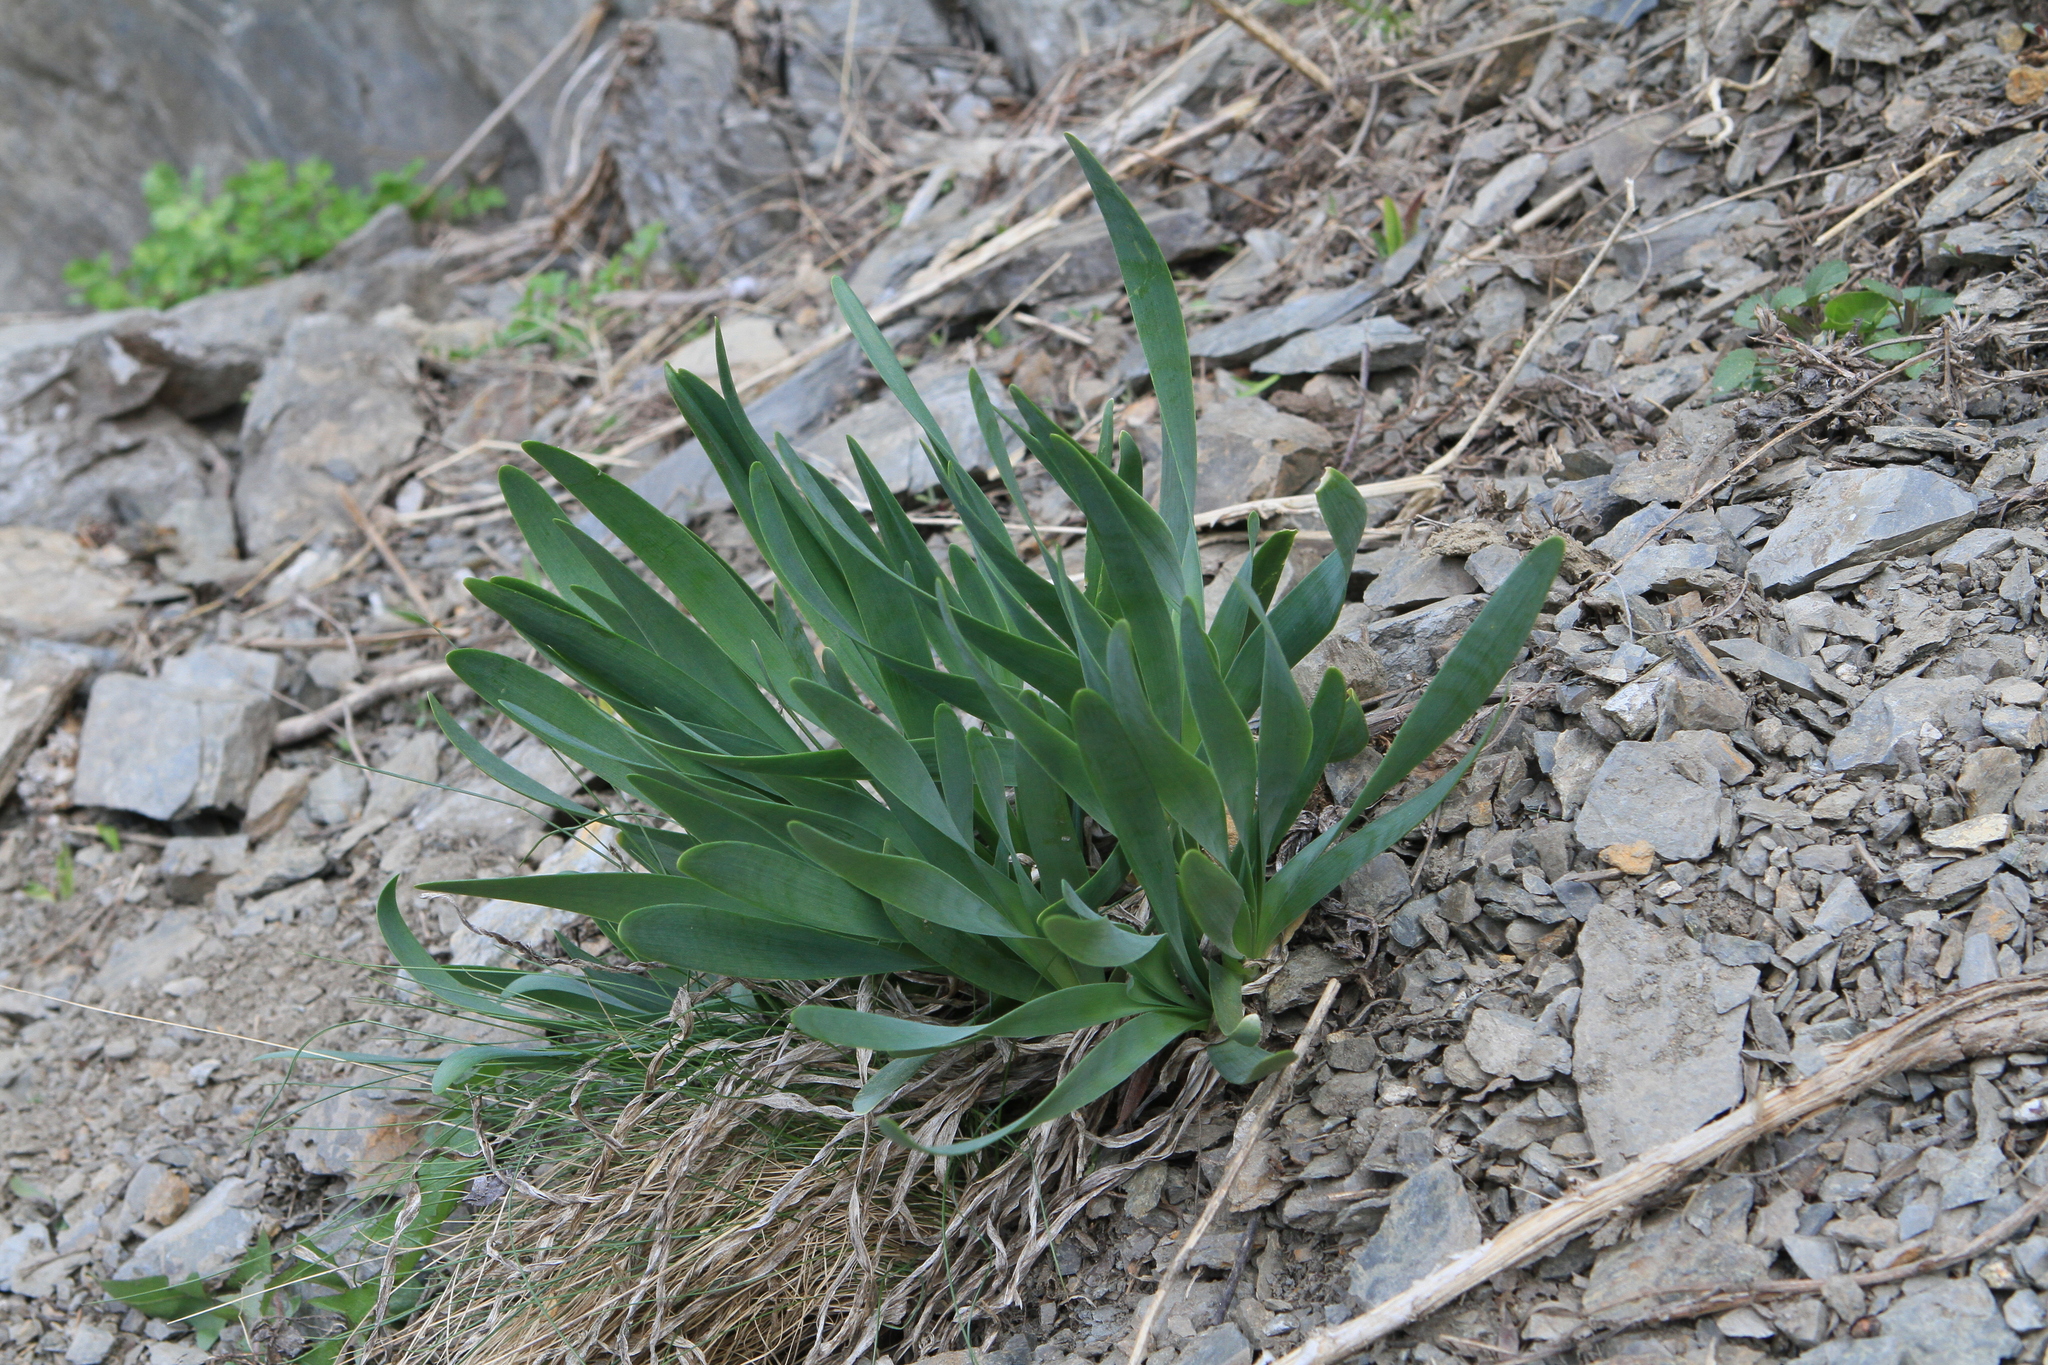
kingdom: Plantae
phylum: Tracheophyta
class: Liliopsida
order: Asparagales
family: Amaryllidaceae
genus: Allium
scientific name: Allium nutans
